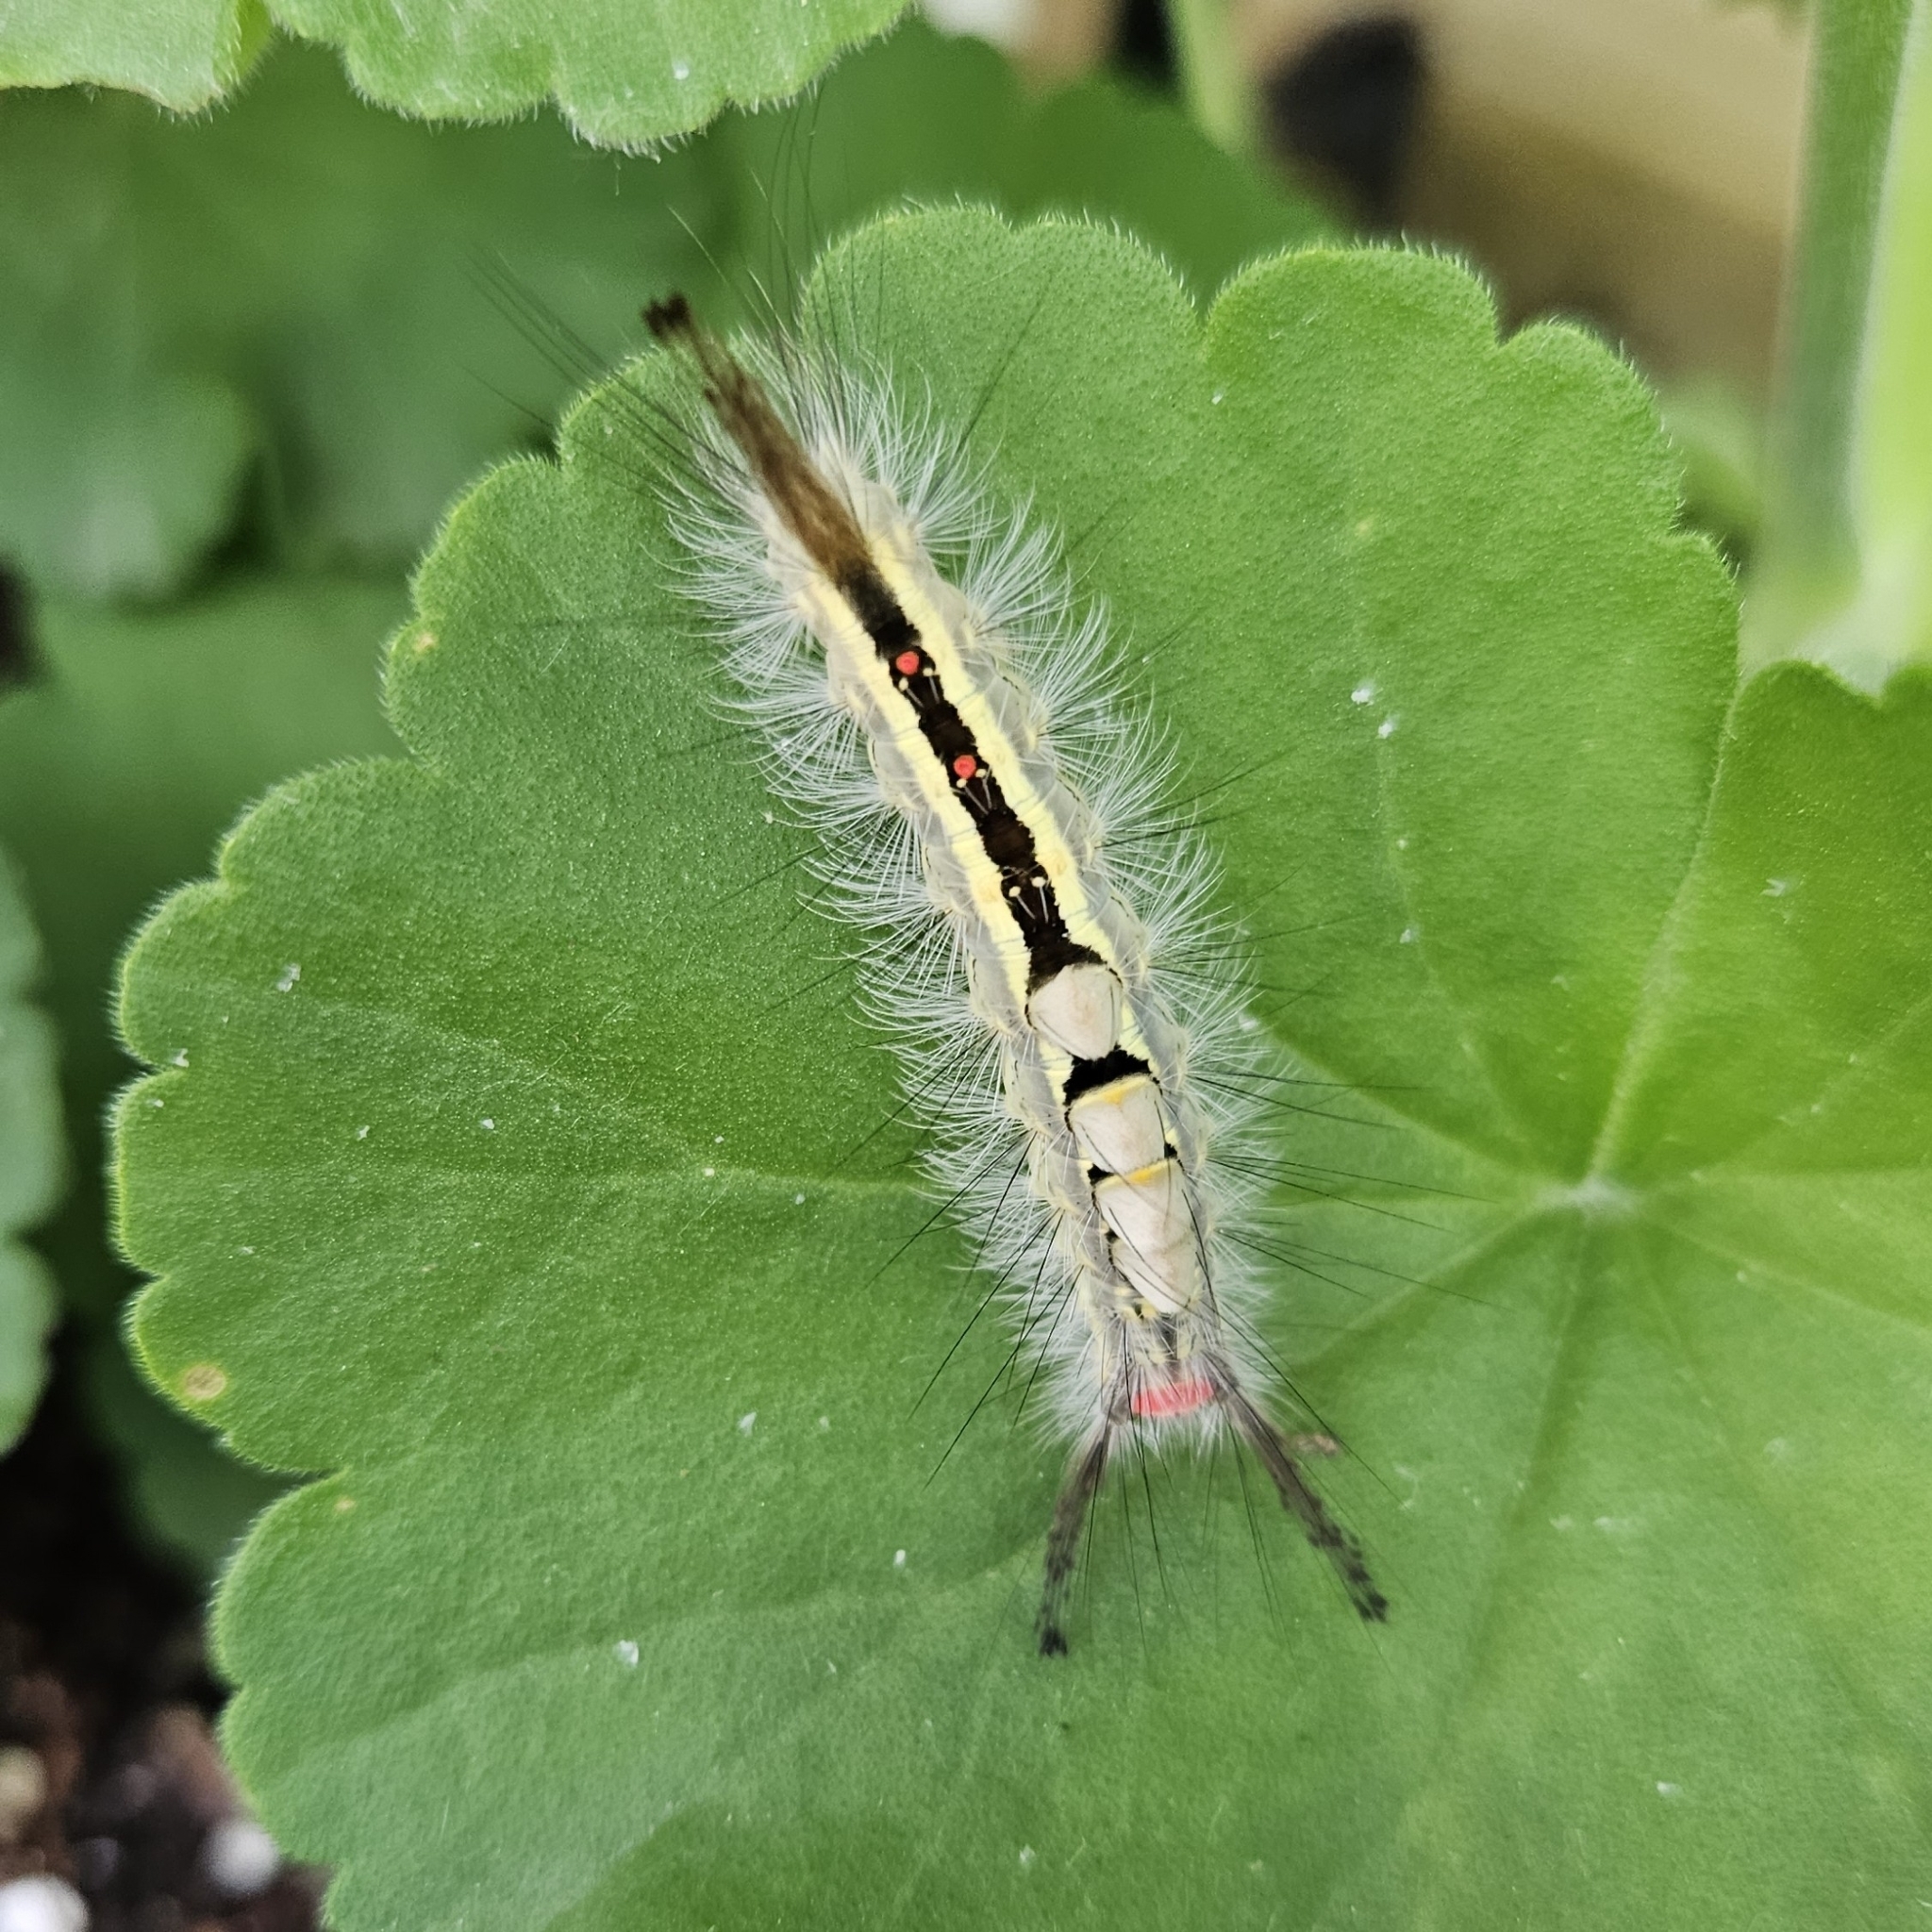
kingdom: Animalia
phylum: Arthropoda
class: Insecta
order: Lepidoptera
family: Erebidae
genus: Orgyia
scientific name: Orgyia leucostigma
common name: White-marked tussock moth
